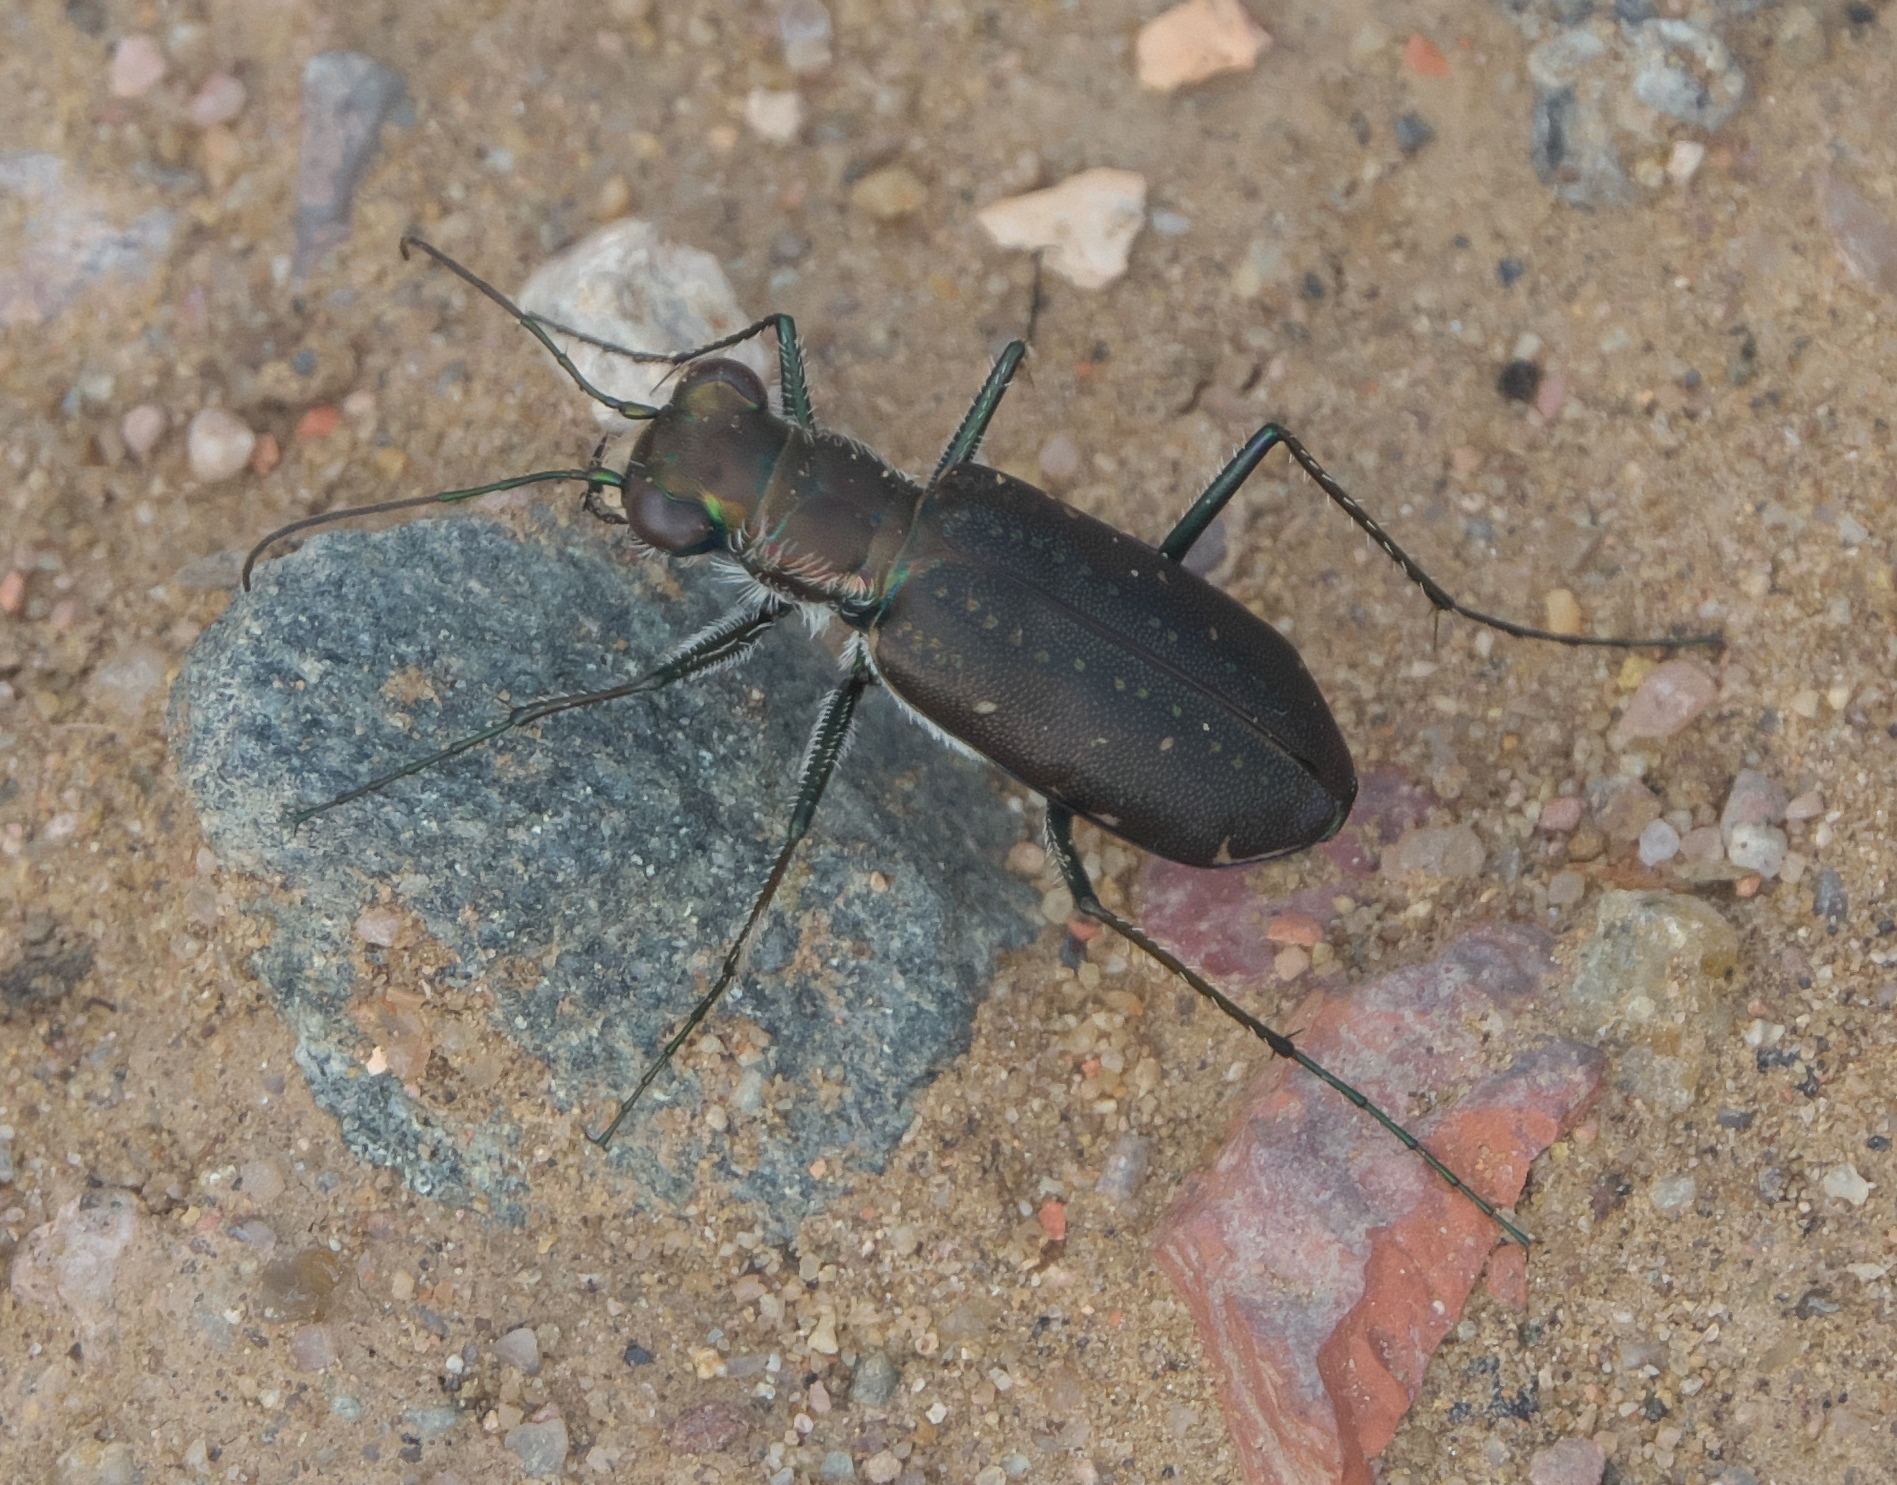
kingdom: Animalia
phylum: Arthropoda
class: Insecta
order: Coleoptera
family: Carabidae
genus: Cicindela
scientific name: Cicindela punctulata
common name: Punctured tiger beetle
